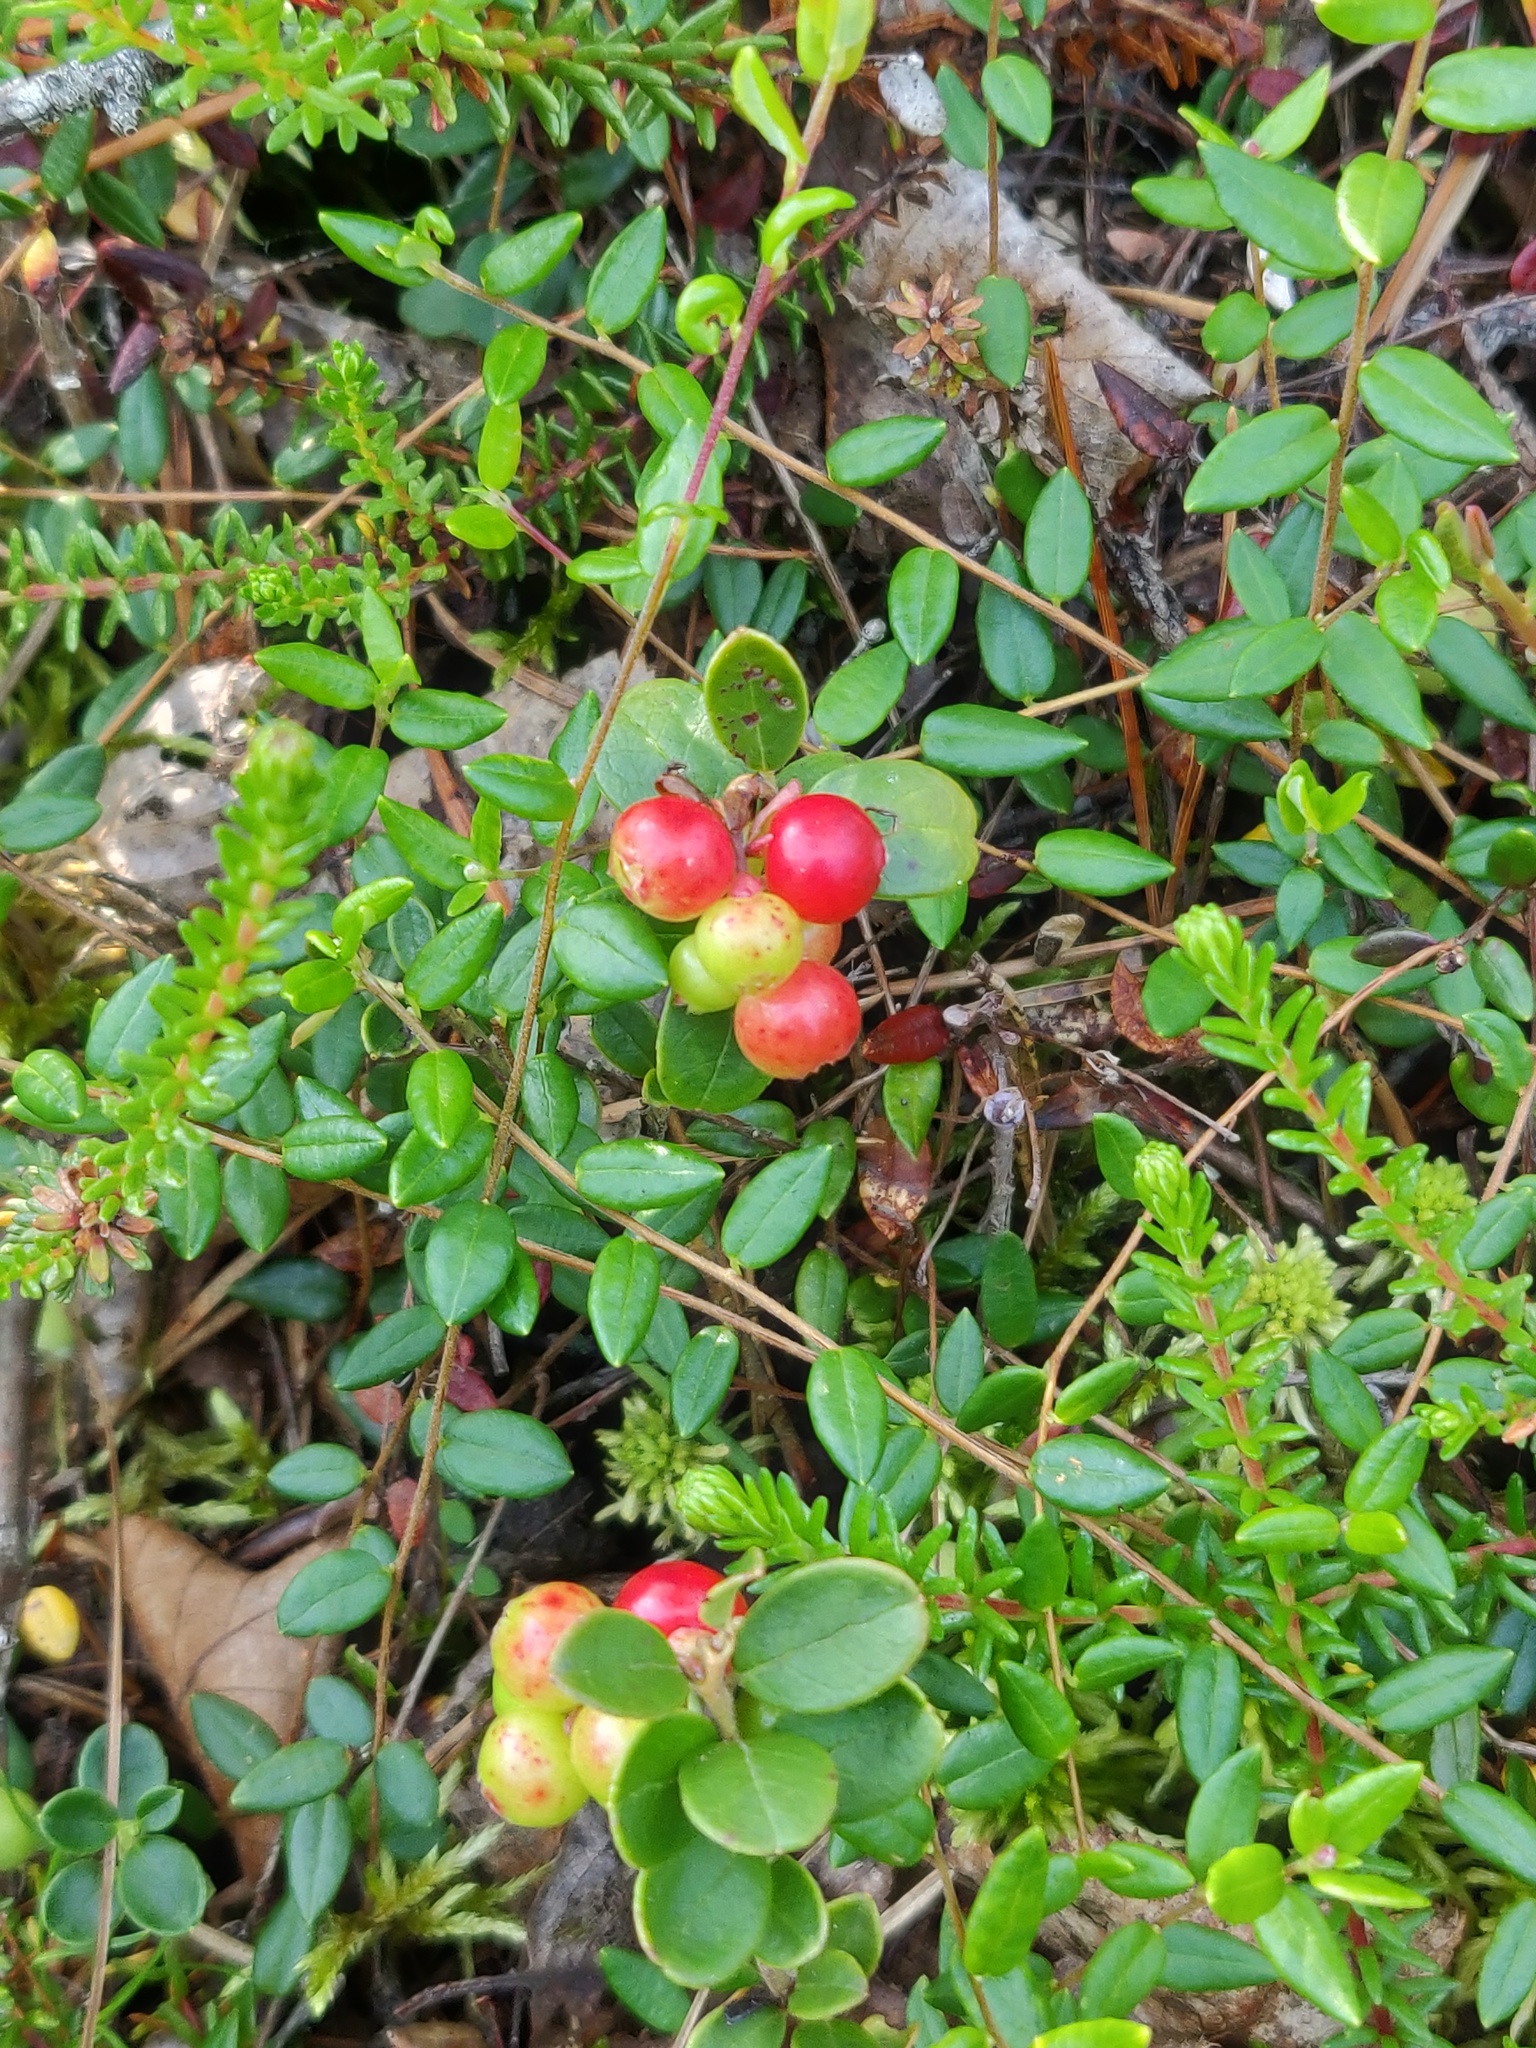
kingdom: Plantae
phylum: Tracheophyta
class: Magnoliopsida
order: Ericales
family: Ericaceae
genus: Vaccinium
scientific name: Vaccinium vitis-idaea
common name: Cowberry
